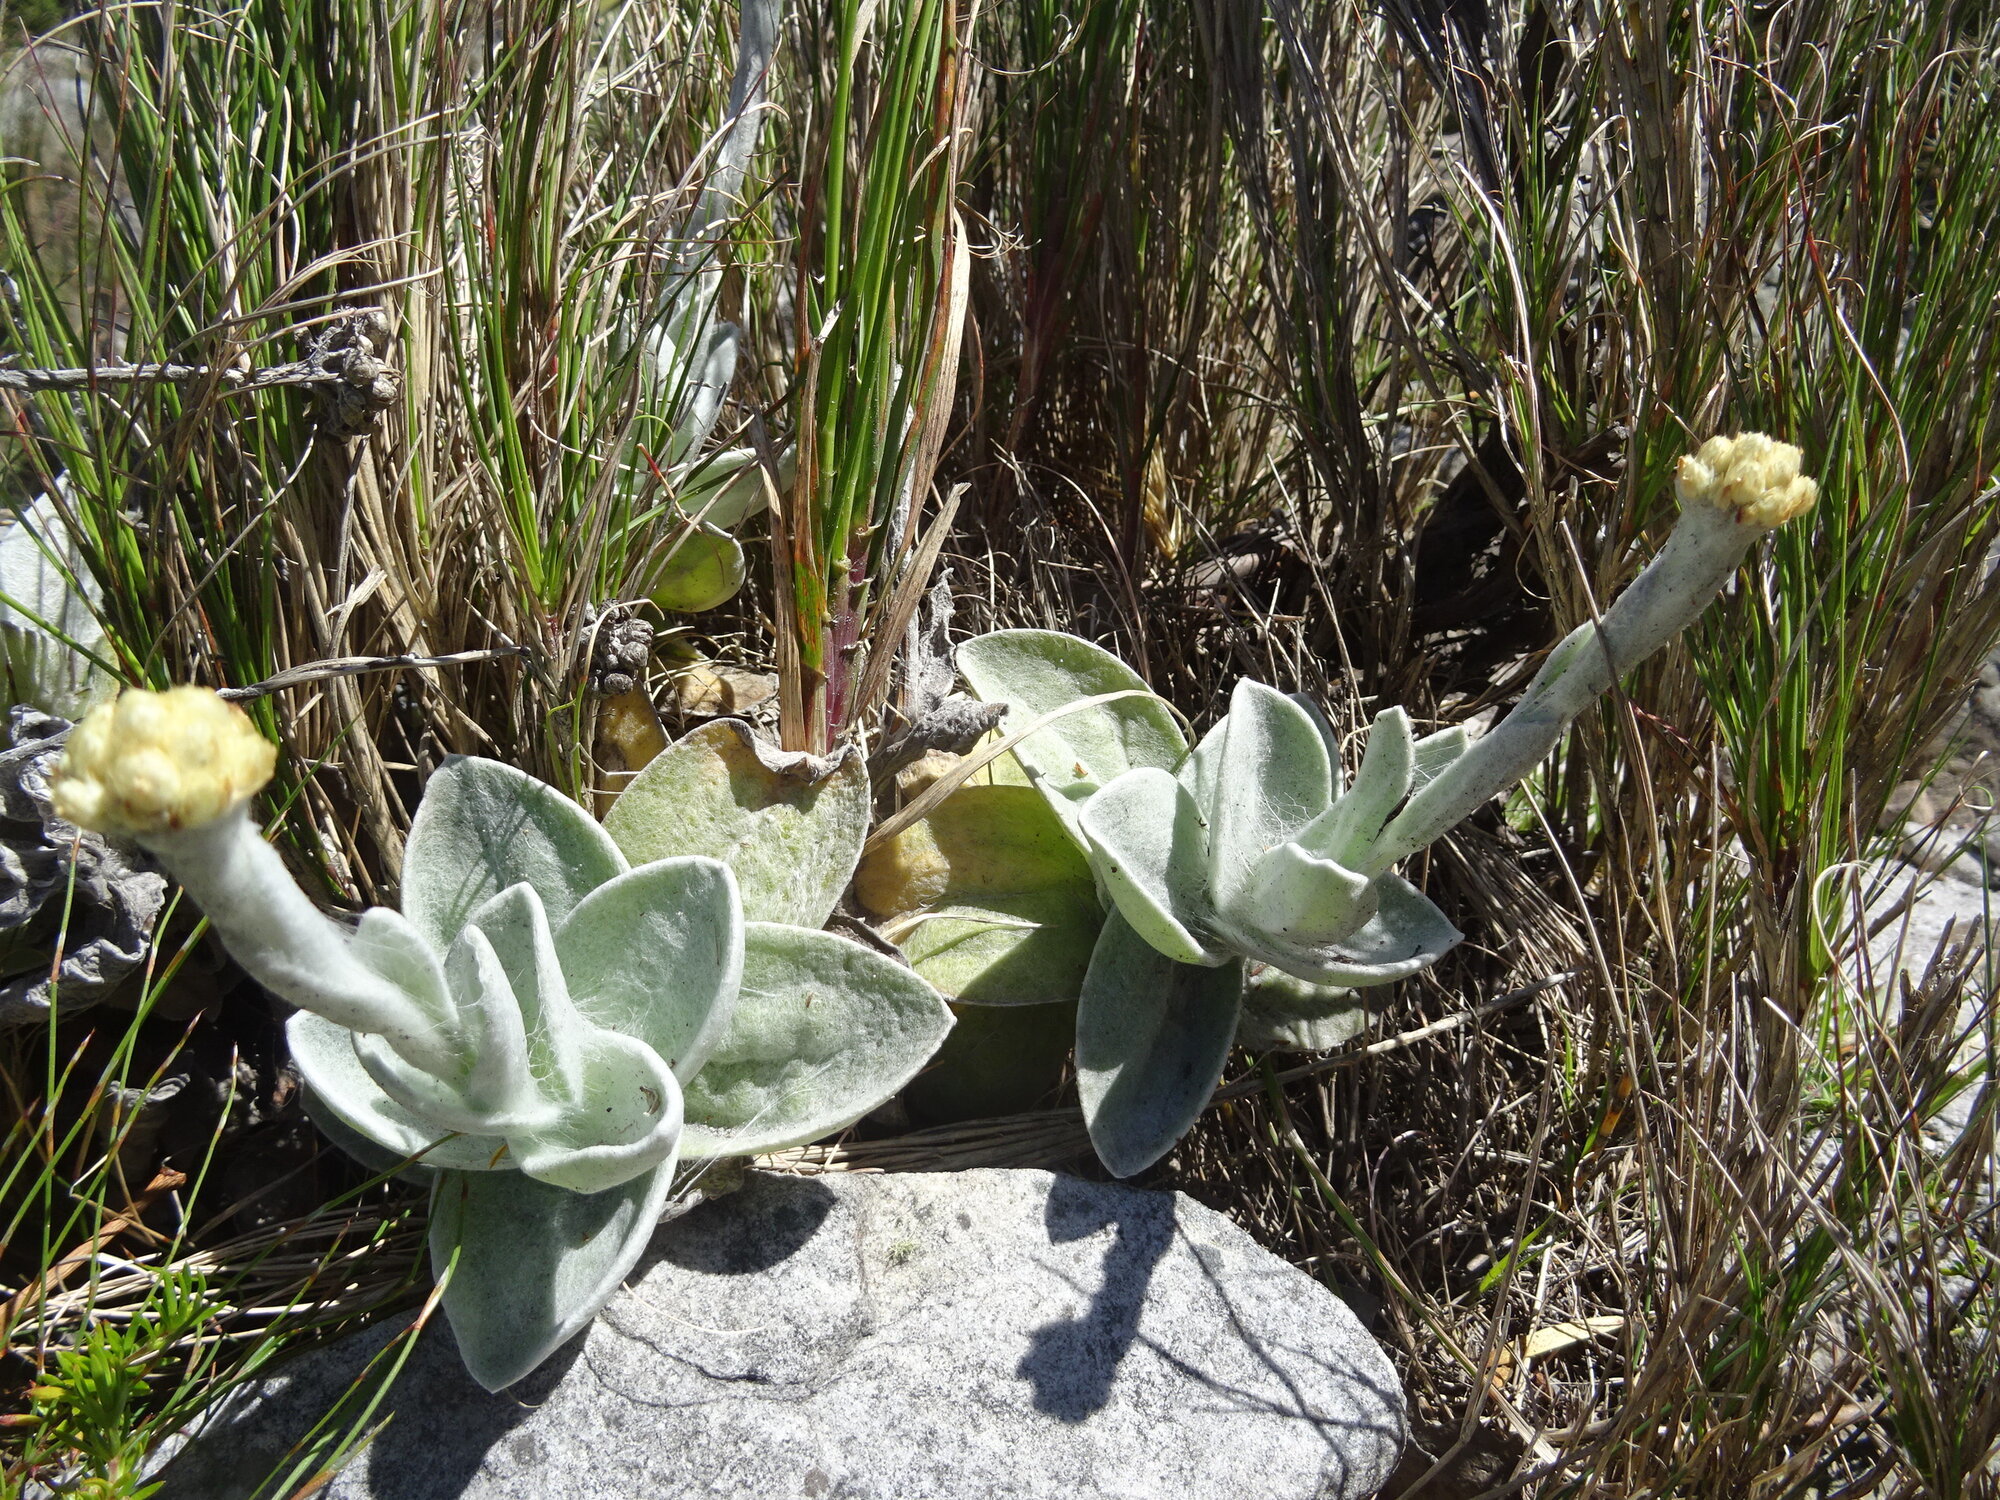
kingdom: Plantae
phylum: Tracheophyta
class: Magnoliopsida
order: Asterales
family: Asteraceae
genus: Helichrysum
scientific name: Helichrysum grandiflorum
